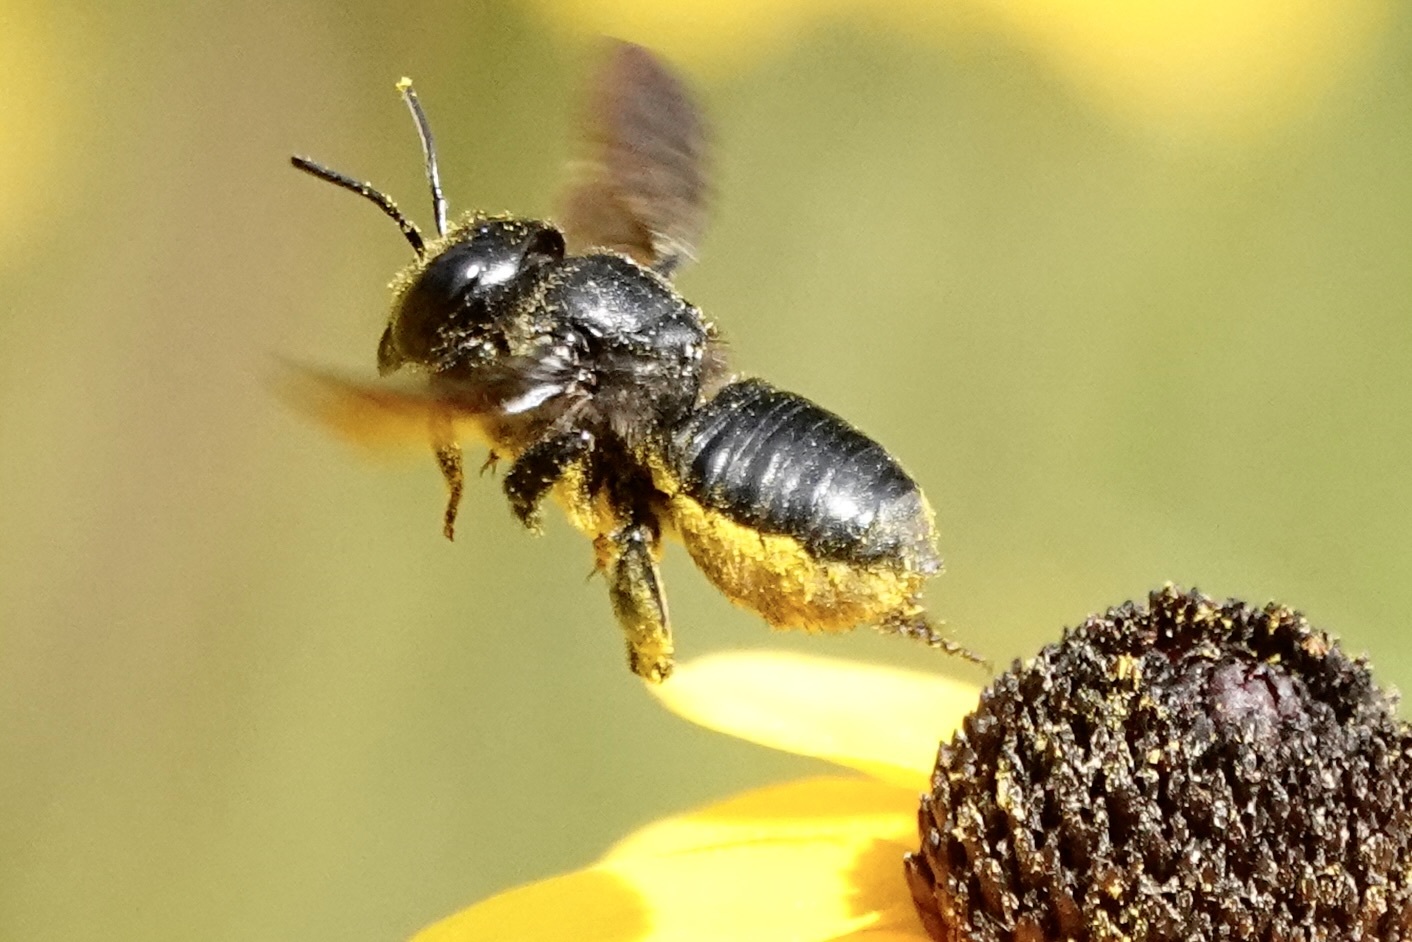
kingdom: Animalia
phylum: Arthropoda
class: Insecta
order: Hymenoptera
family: Megachilidae
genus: Megachile
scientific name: Megachile xylocopoides
